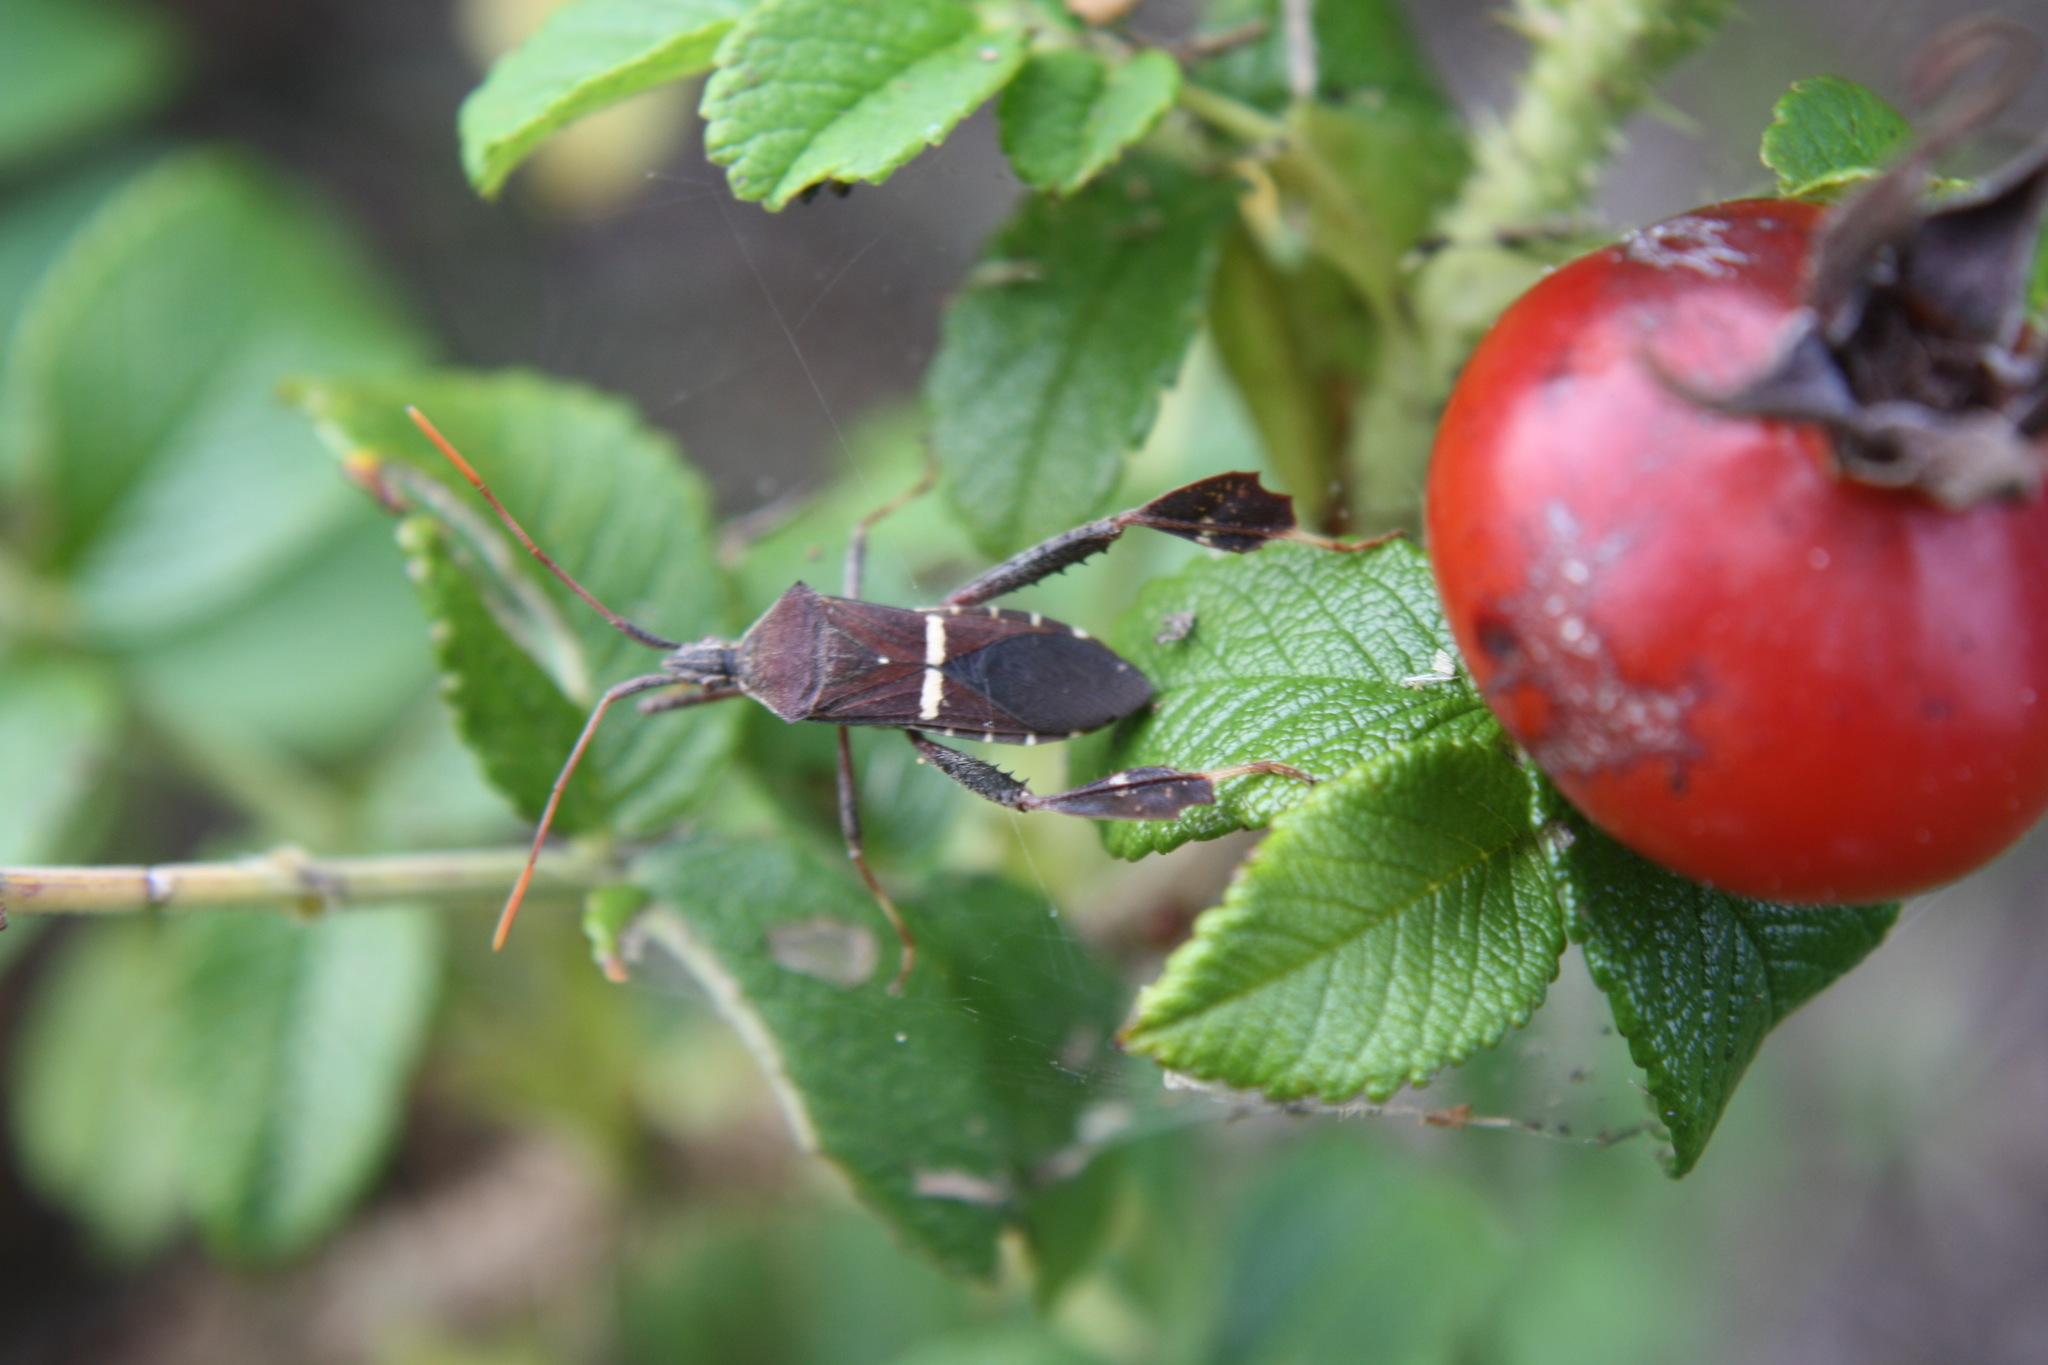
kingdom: Animalia
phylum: Arthropoda
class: Insecta
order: Hemiptera
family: Coreidae
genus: Leptoglossus
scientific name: Leptoglossus phyllopus
